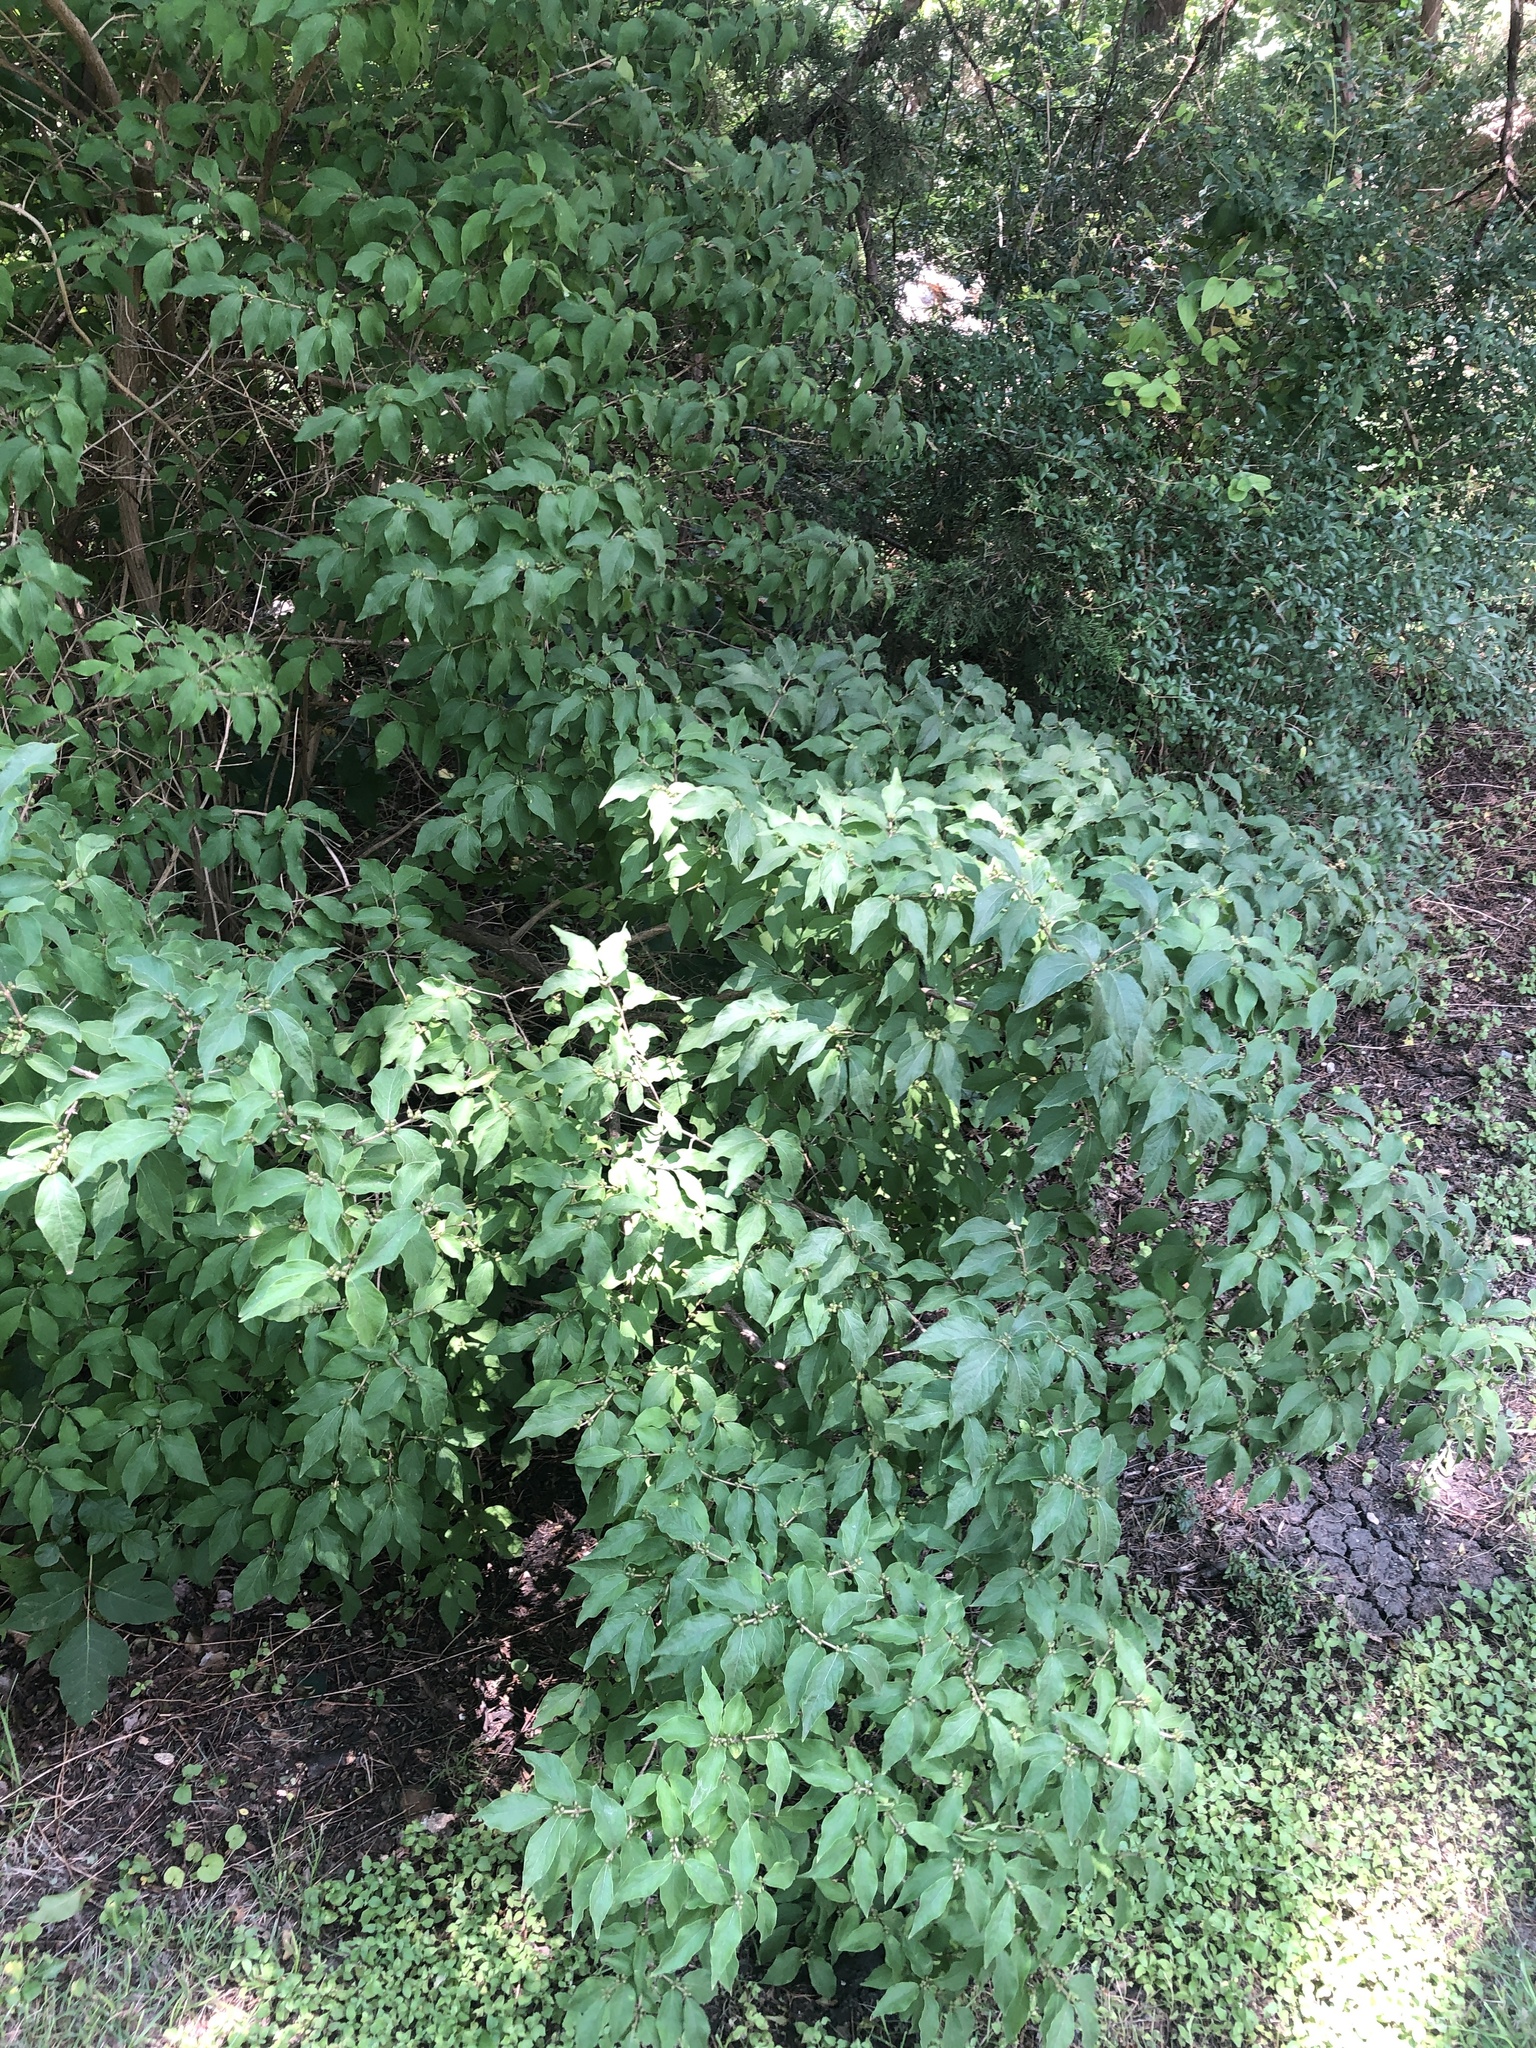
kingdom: Plantae
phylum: Tracheophyta
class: Magnoliopsida
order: Dipsacales
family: Caprifoliaceae
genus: Lonicera
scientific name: Lonicera maackii
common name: Amur honeysuckle
